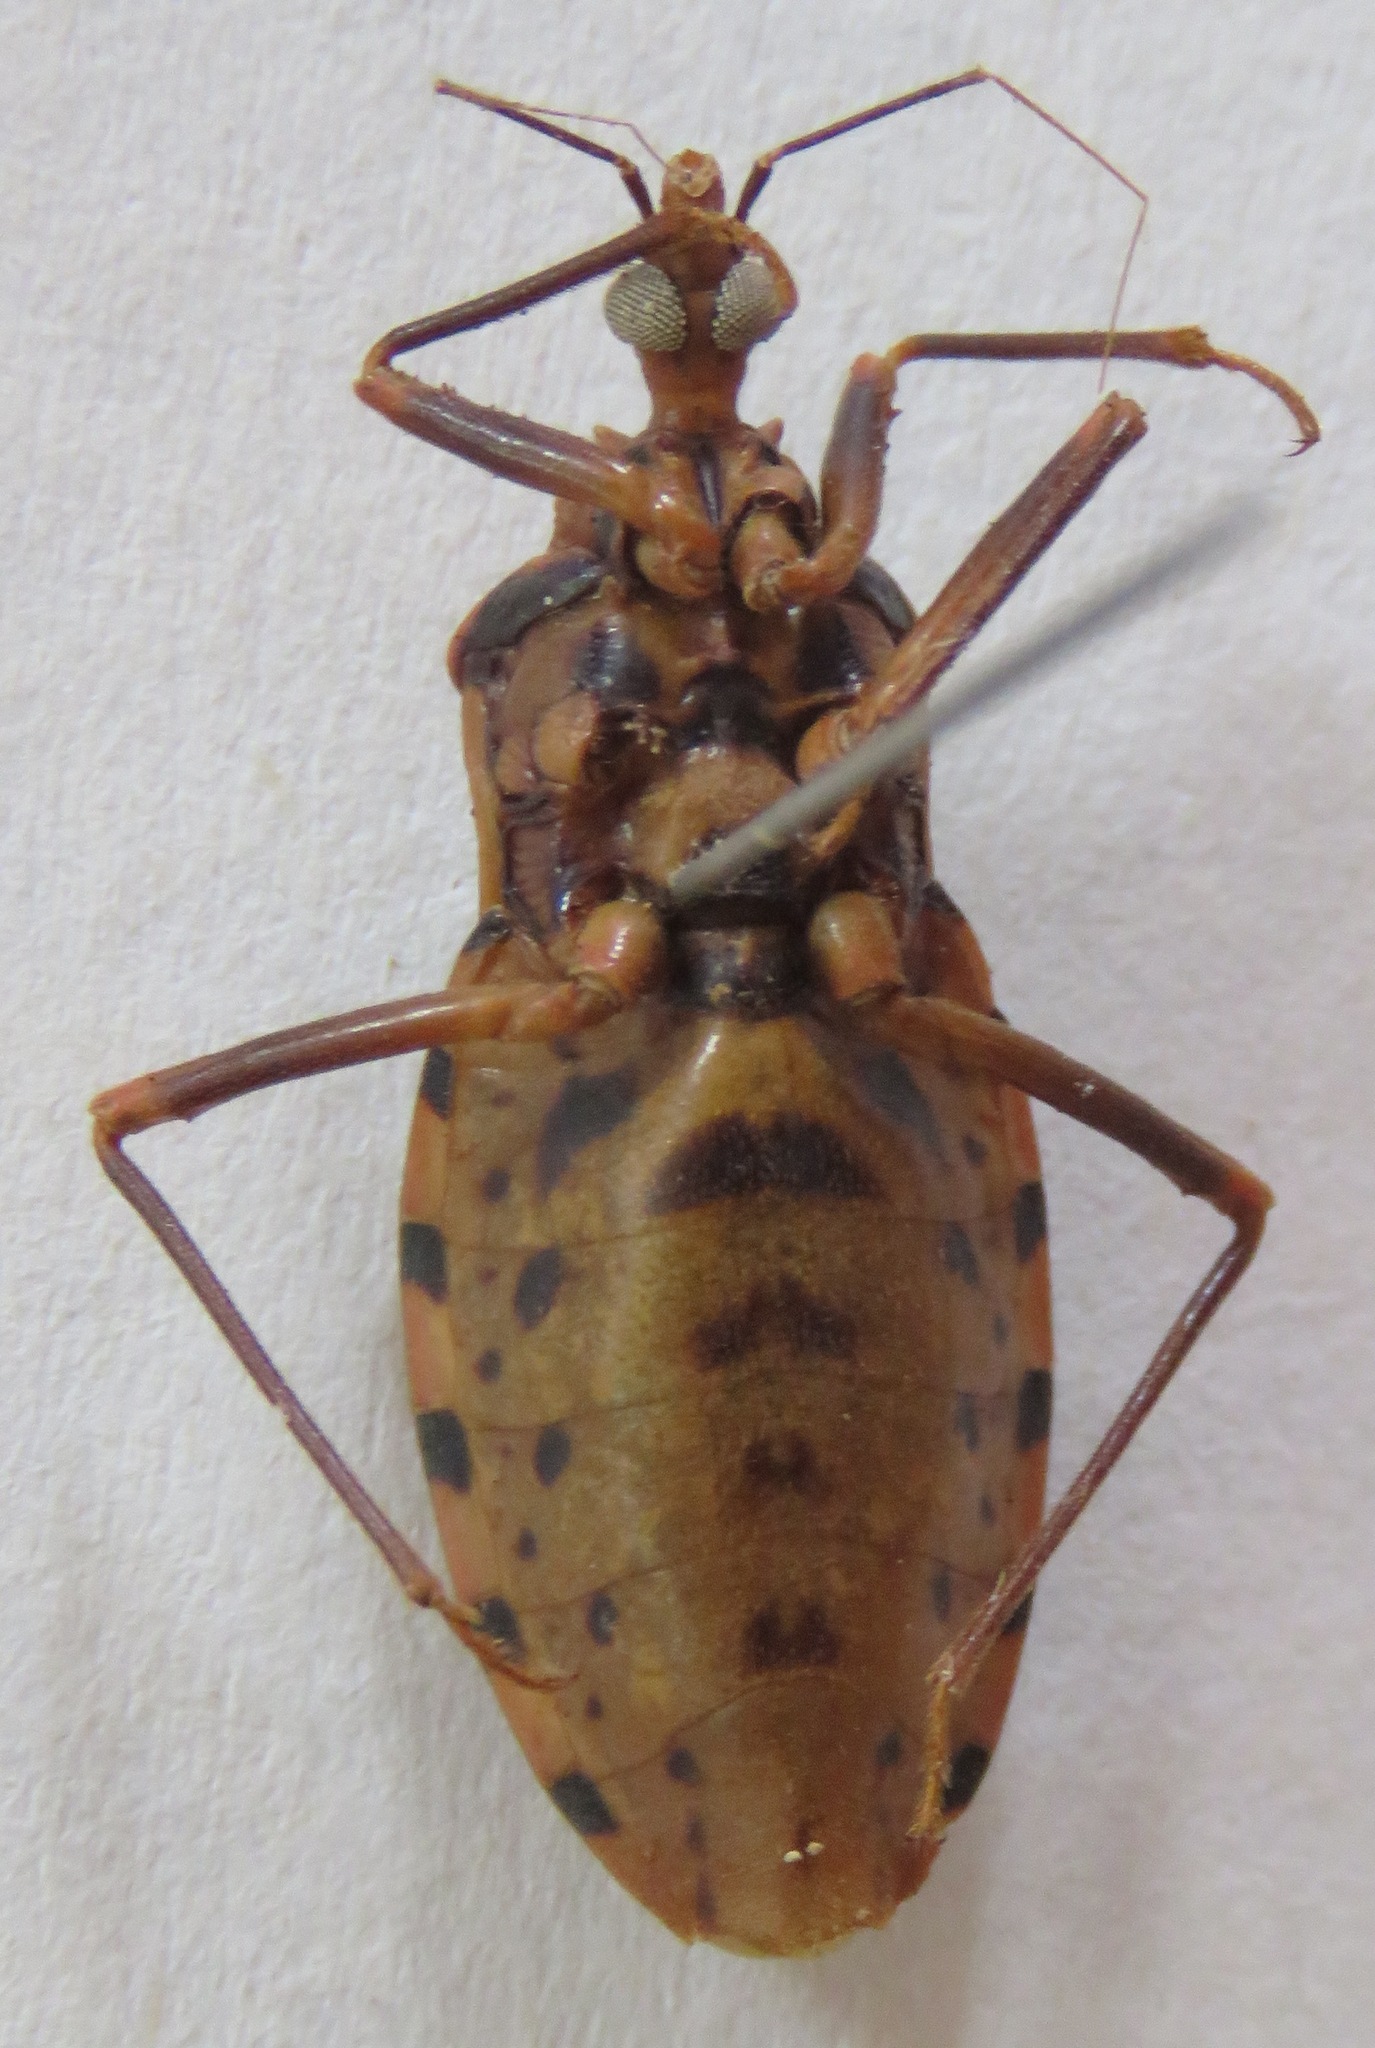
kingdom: Animalia
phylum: Arthropoda
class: Insecta
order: Hemiptera
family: Reduviidae
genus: Panstrongylus
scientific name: Panstrongylus geniculatus
